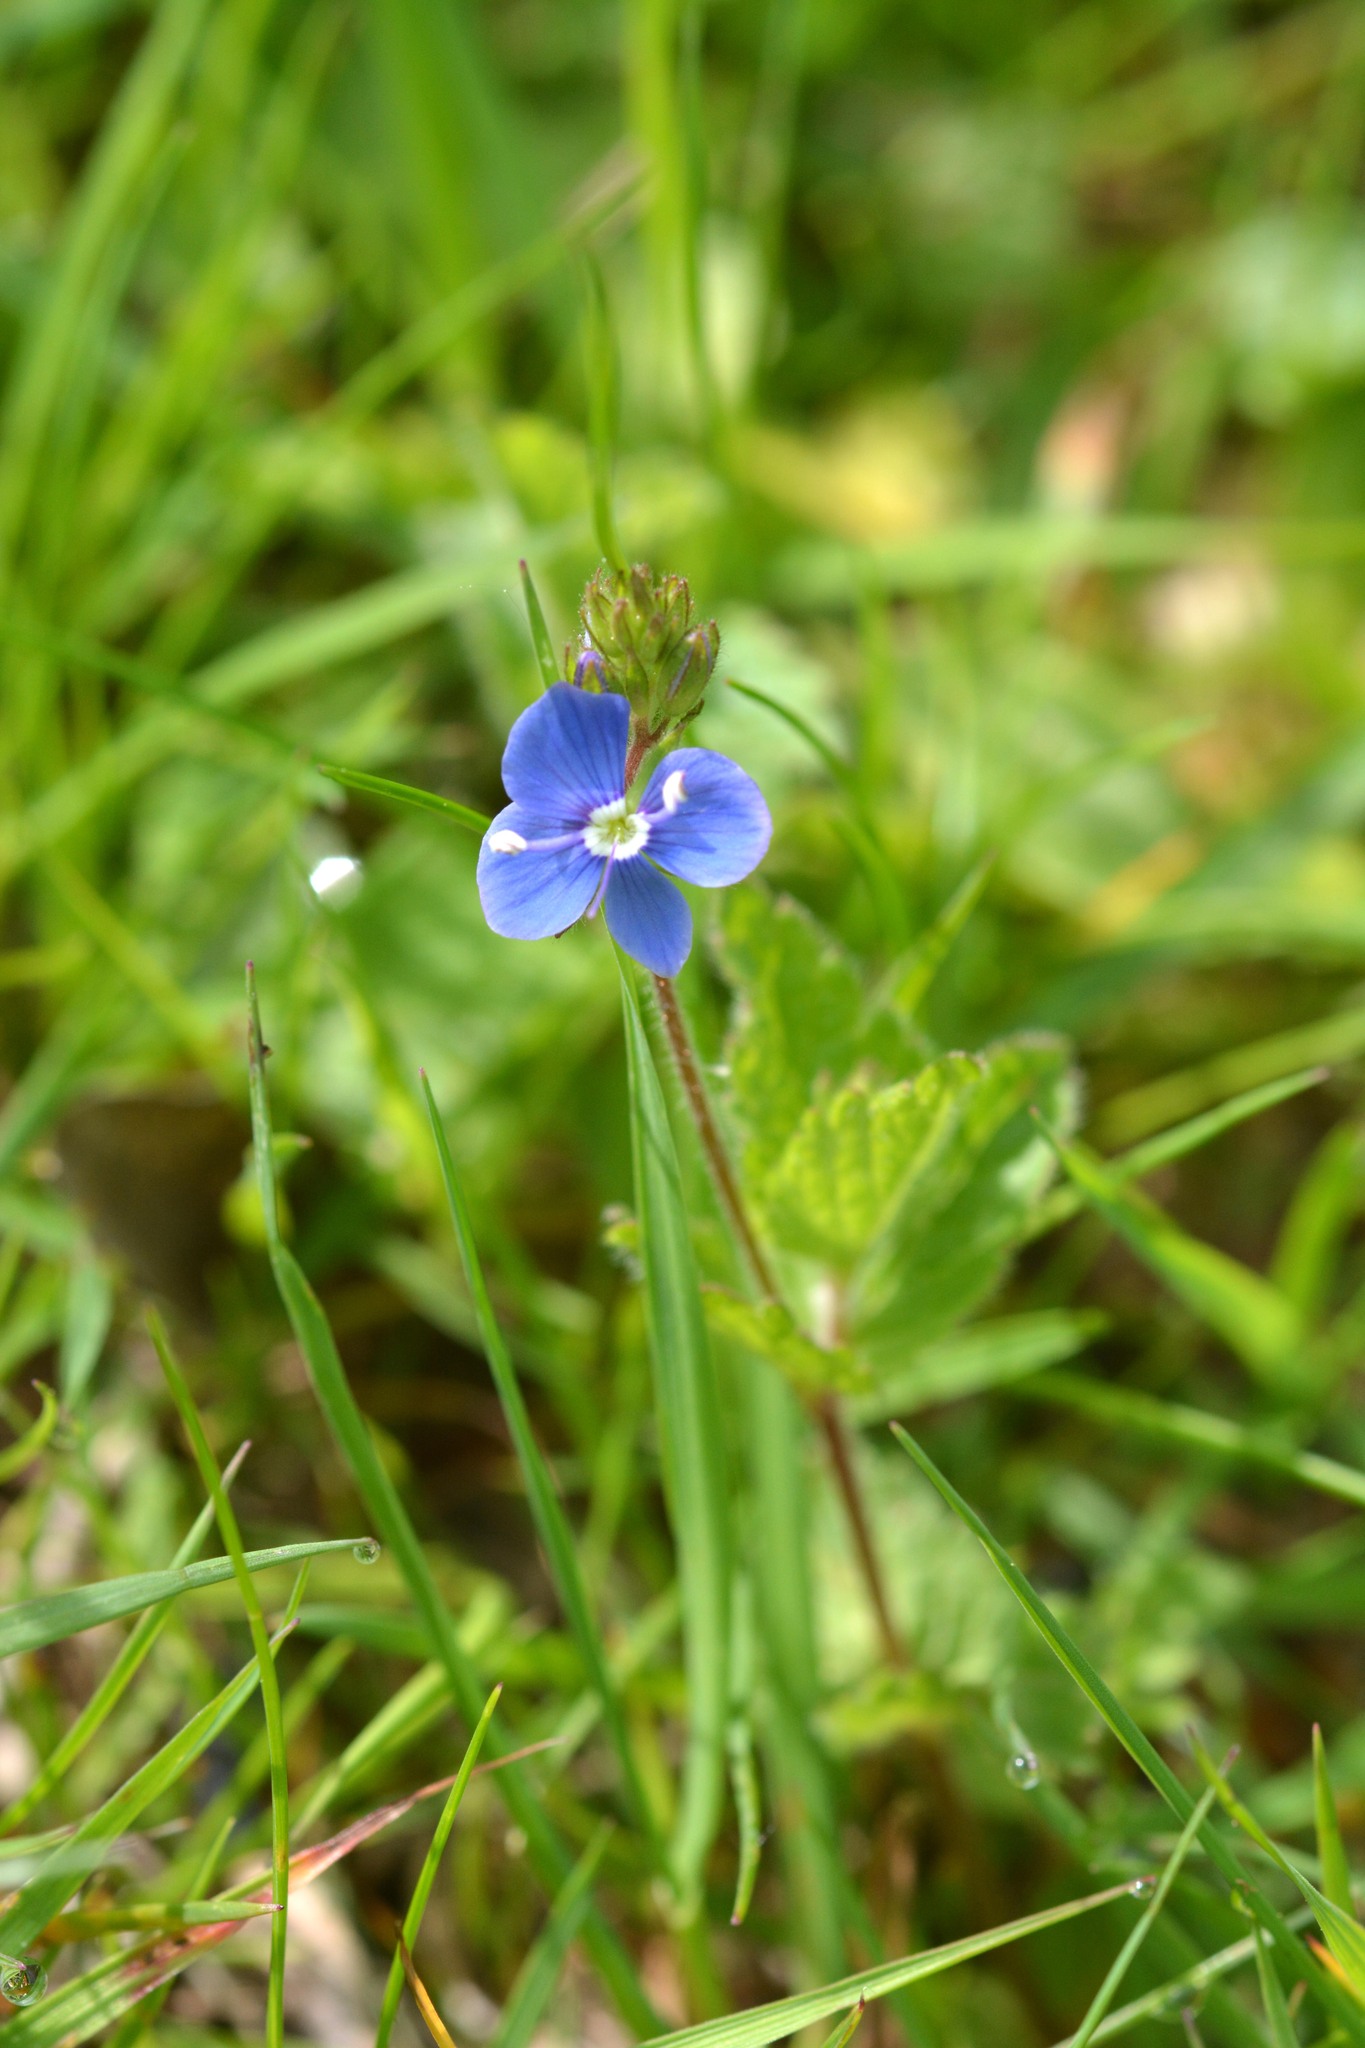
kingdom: Plantae
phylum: Tracheophyta
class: Magnoliopsida
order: Lamiales
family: Plantaginaceae
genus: Veronica
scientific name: Veronica chamaedrys
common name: Germander speedwell
